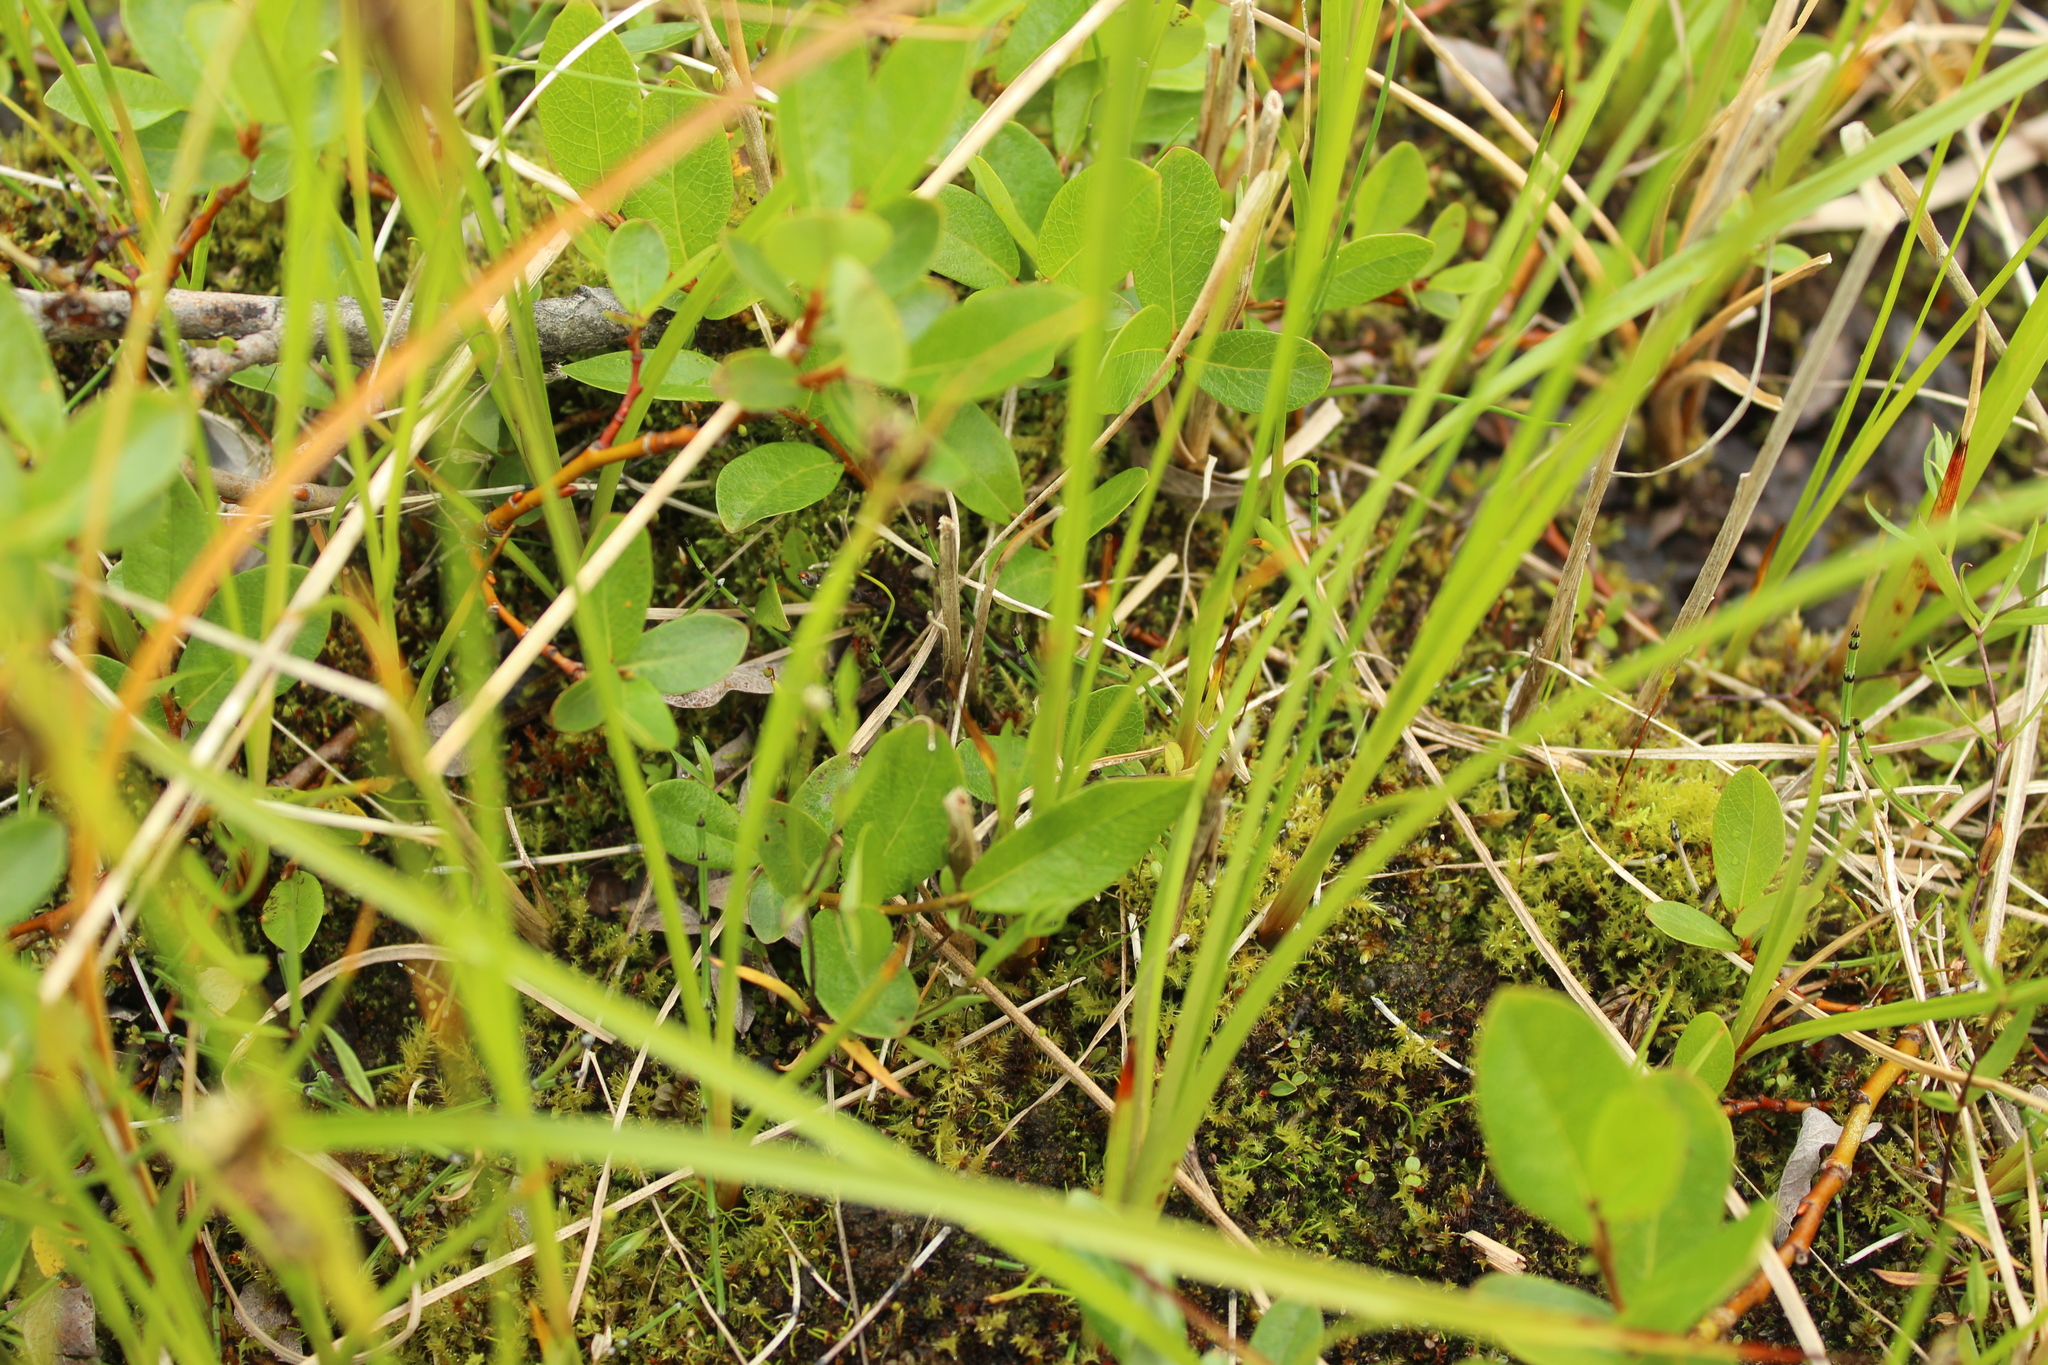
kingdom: Plantae
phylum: Tracheophyta
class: Liliopsida
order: Poales
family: Juncaceae
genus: Juncus
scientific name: Juncus castaneus
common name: Chestnut rush
